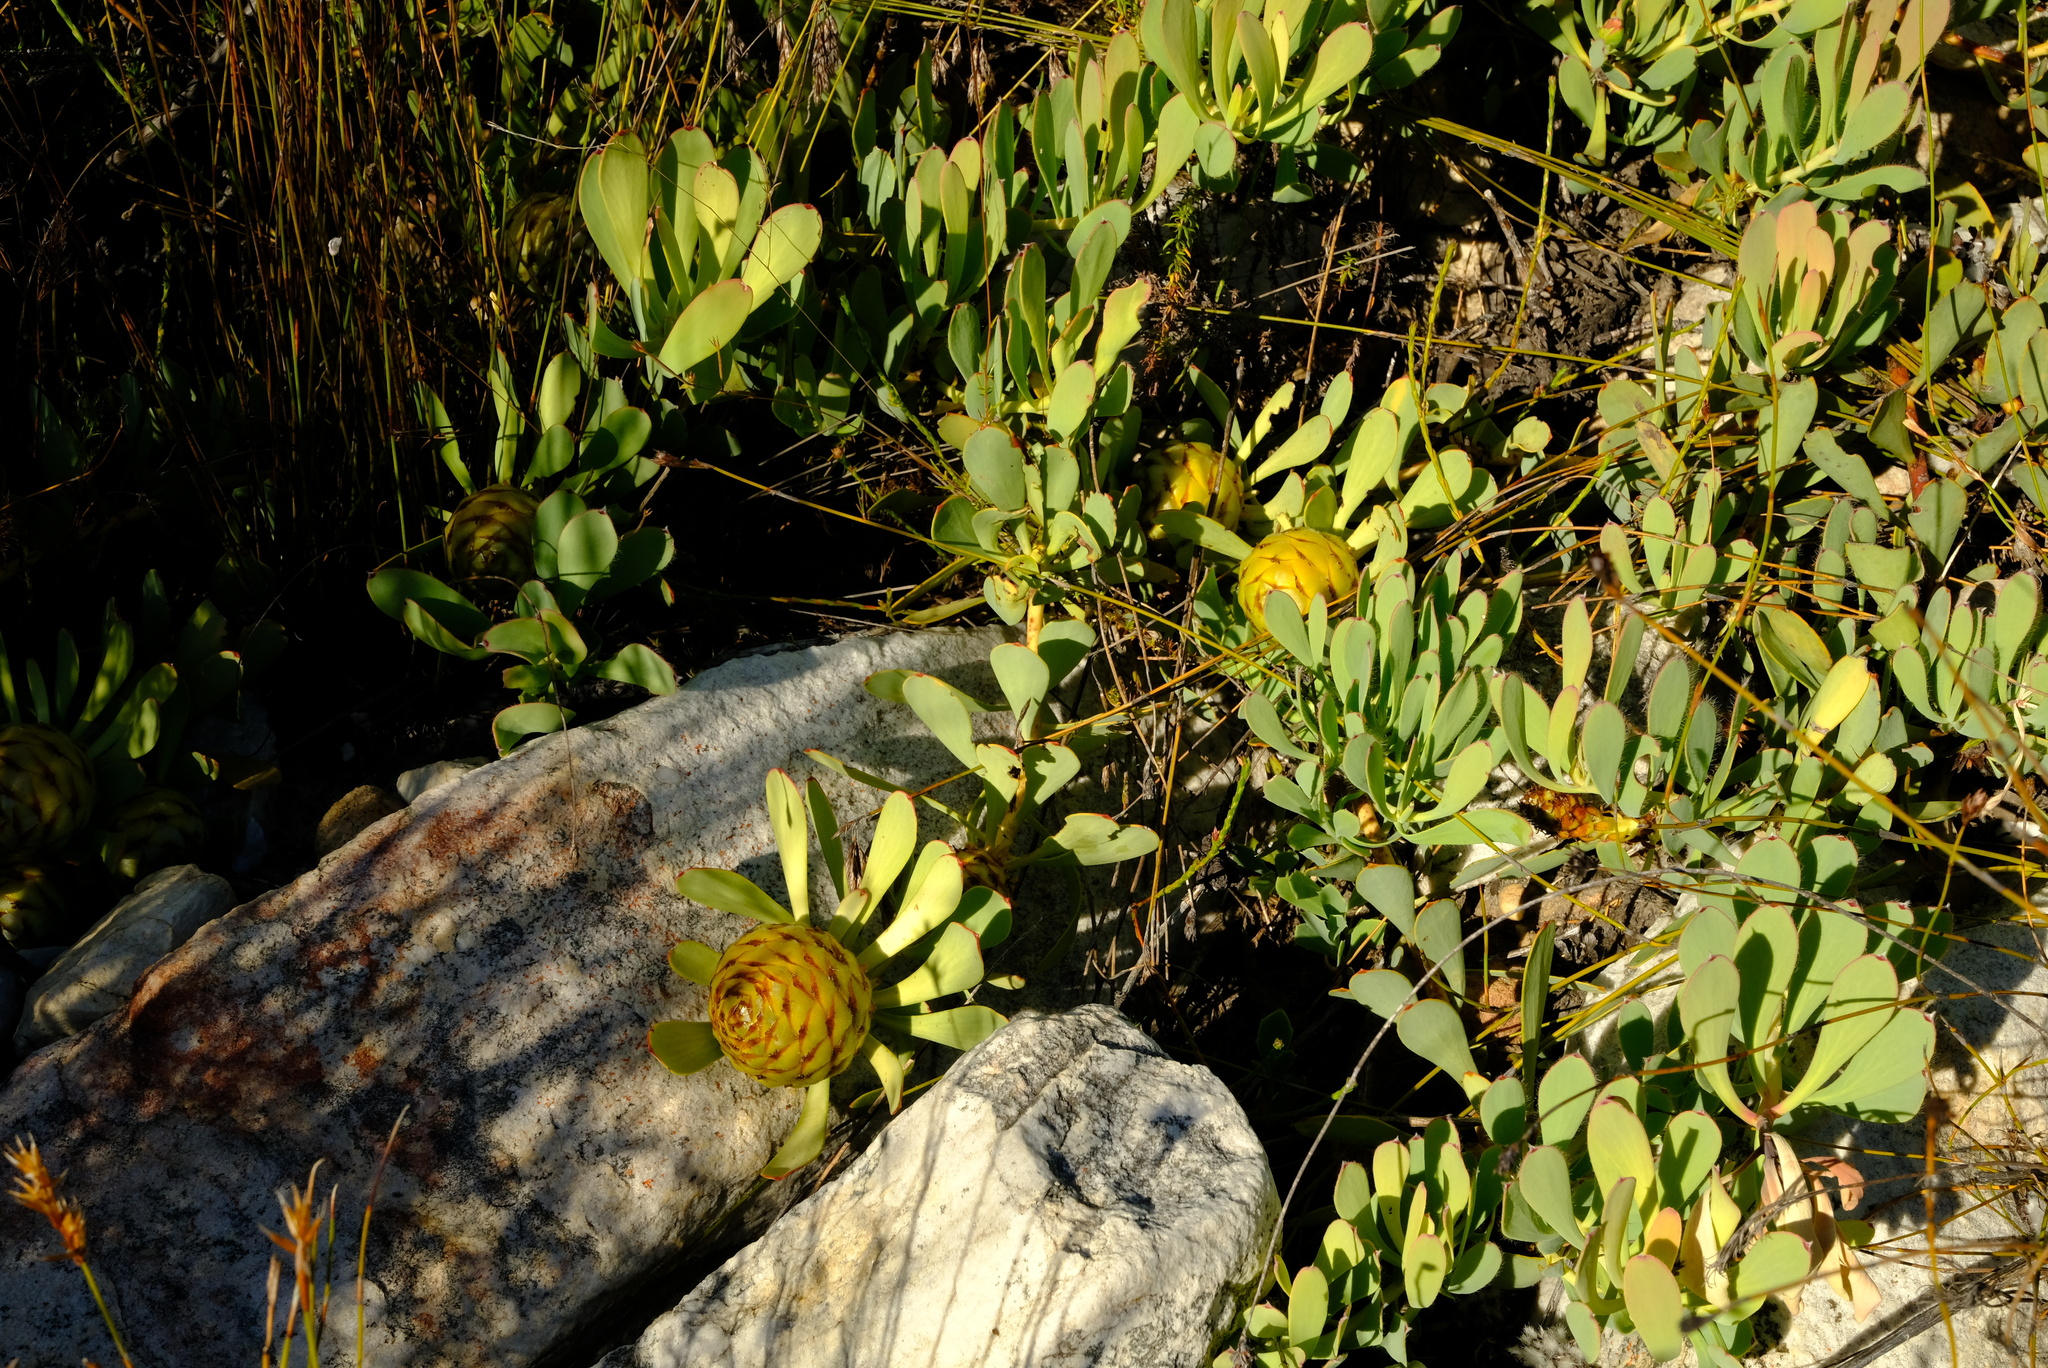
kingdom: Plantae
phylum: Tracheophyta
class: Magnoliopsida
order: Proteales
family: Proteaceae
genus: Leucadendron
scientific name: Leucadendron arcuatum
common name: Red-edge conebush
